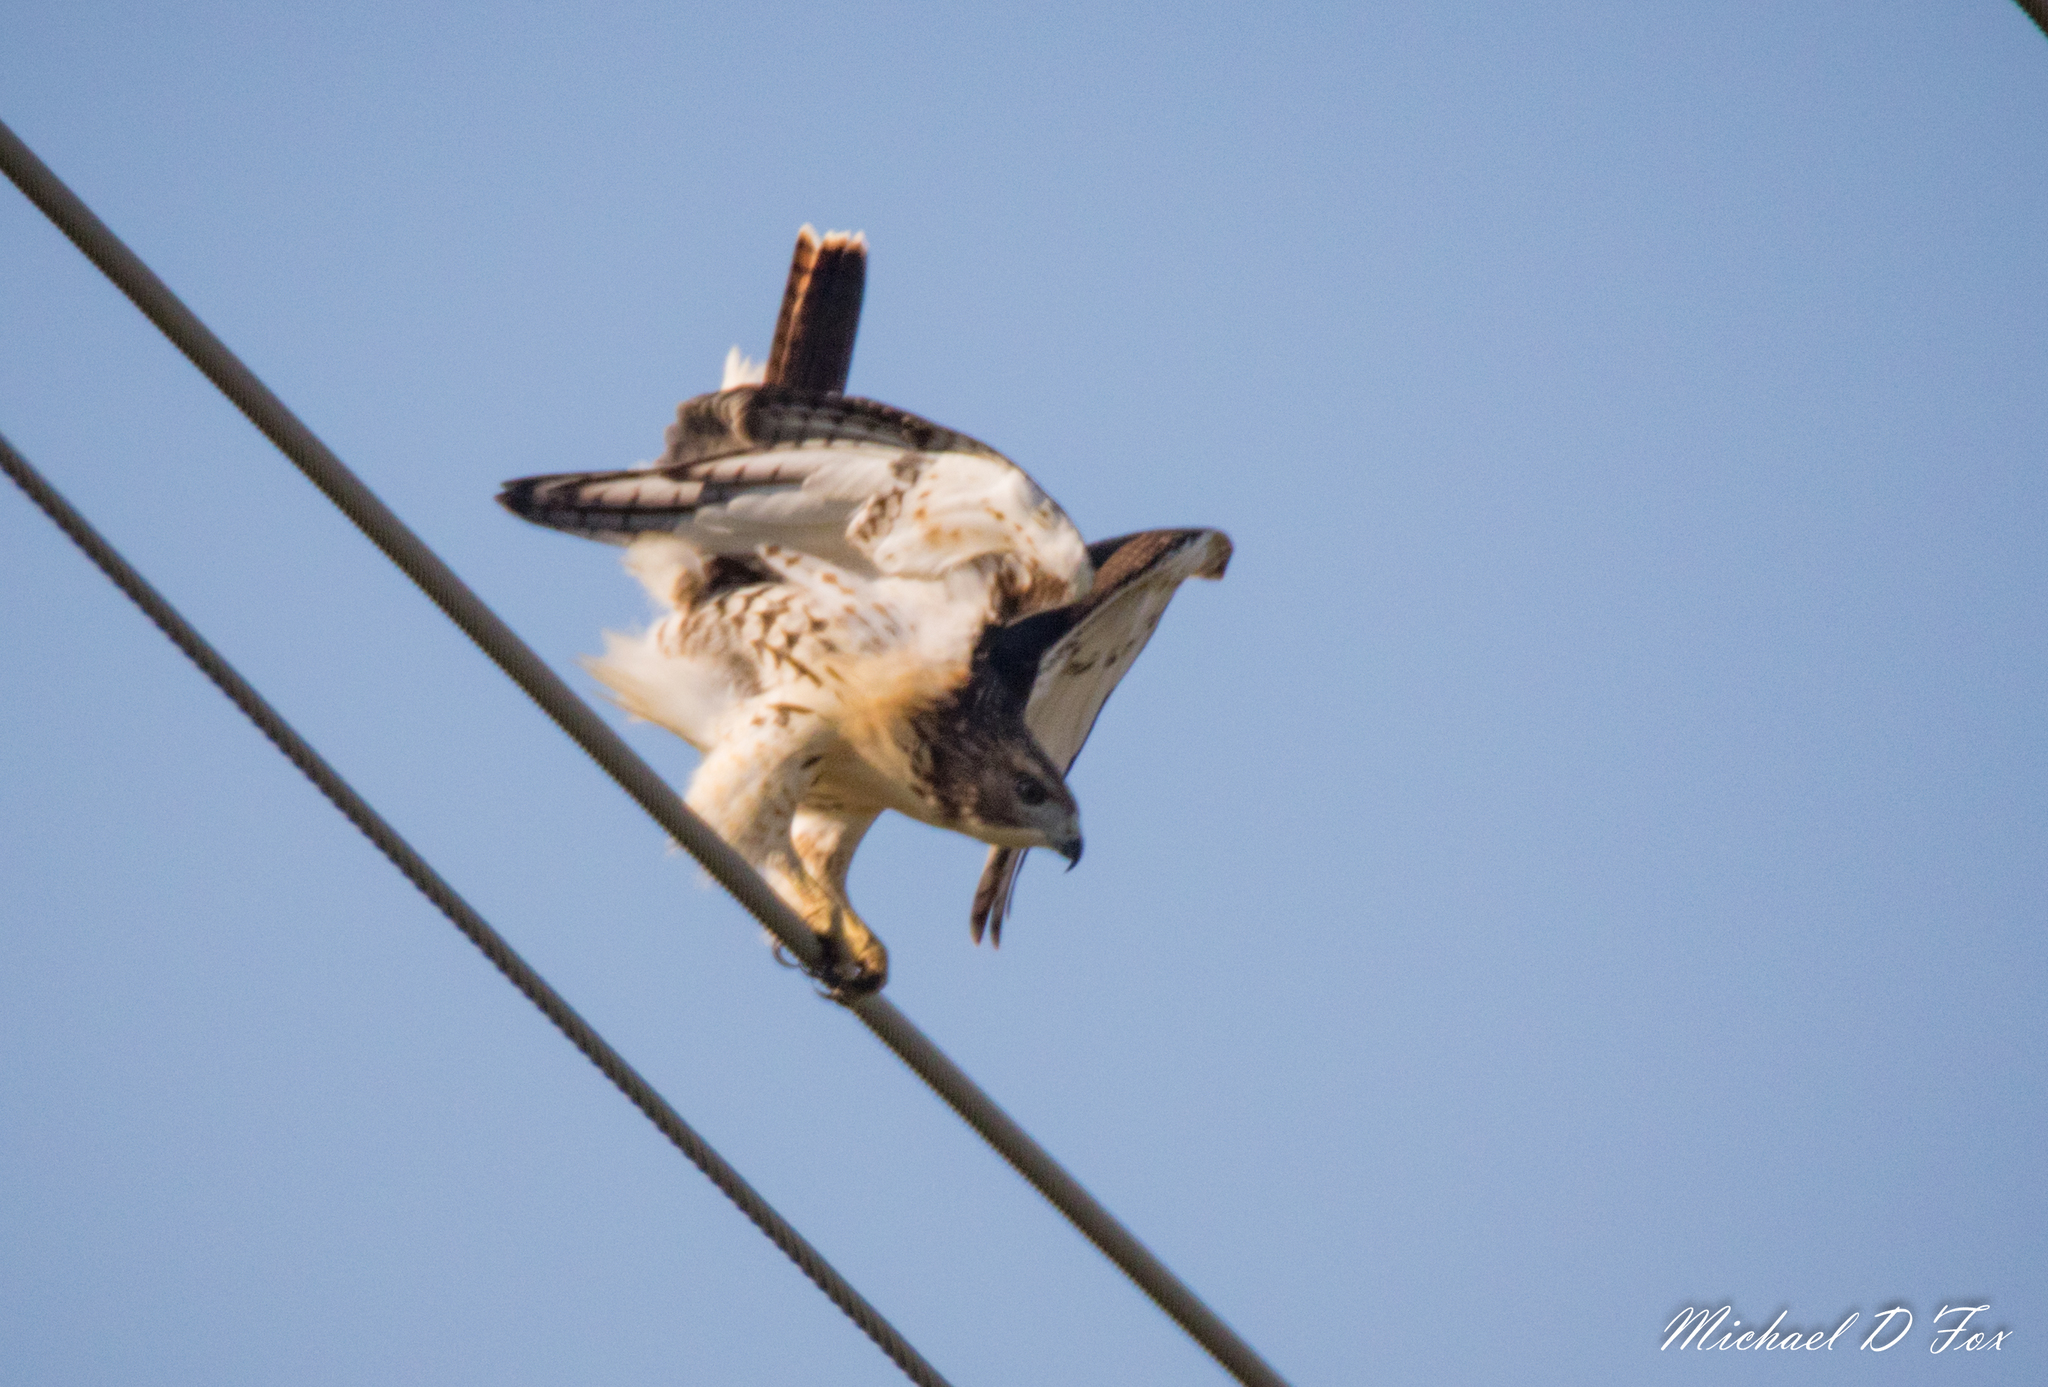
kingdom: Animalia
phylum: Chordata
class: Aves
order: Accipitriformes
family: Accipitridae
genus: Buteo
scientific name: Buteo jamaicensis
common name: Red-tailed hawk
